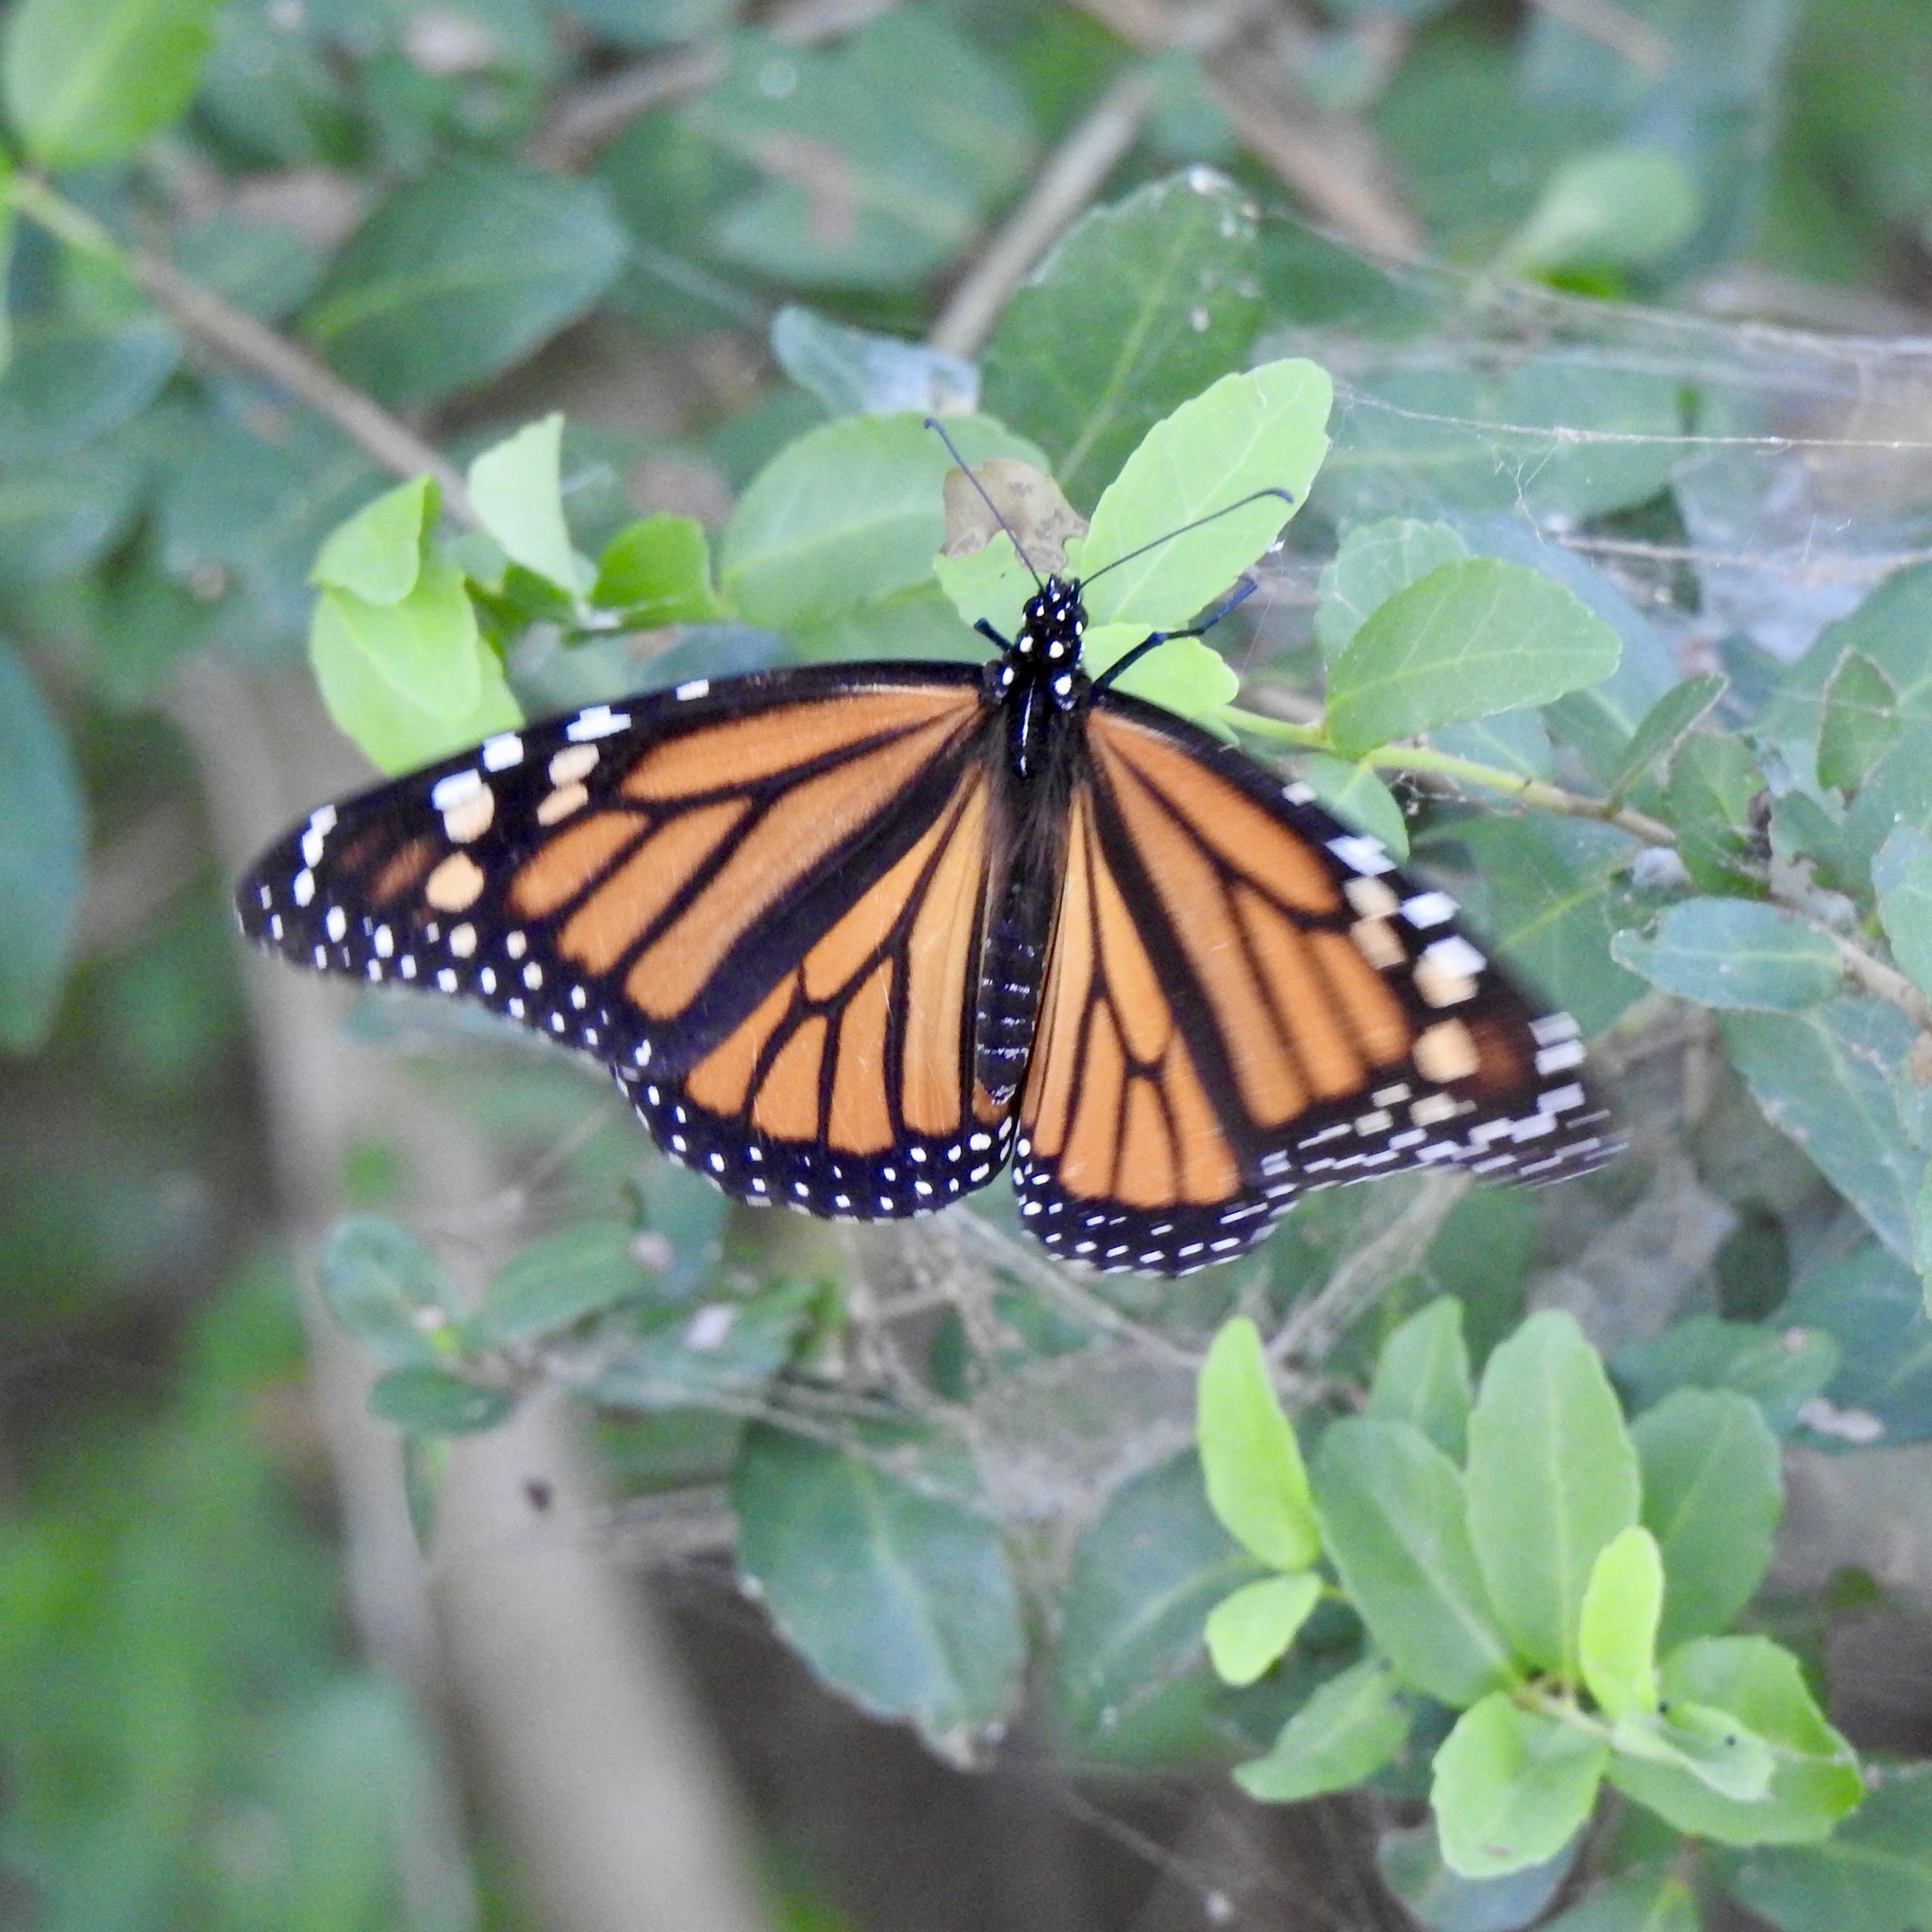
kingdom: Animalia
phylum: Arthropoda
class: Insecta
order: Lepidoptera
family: Nymphalidae
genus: Danaus
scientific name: Danaus plexippus
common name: Monarch
